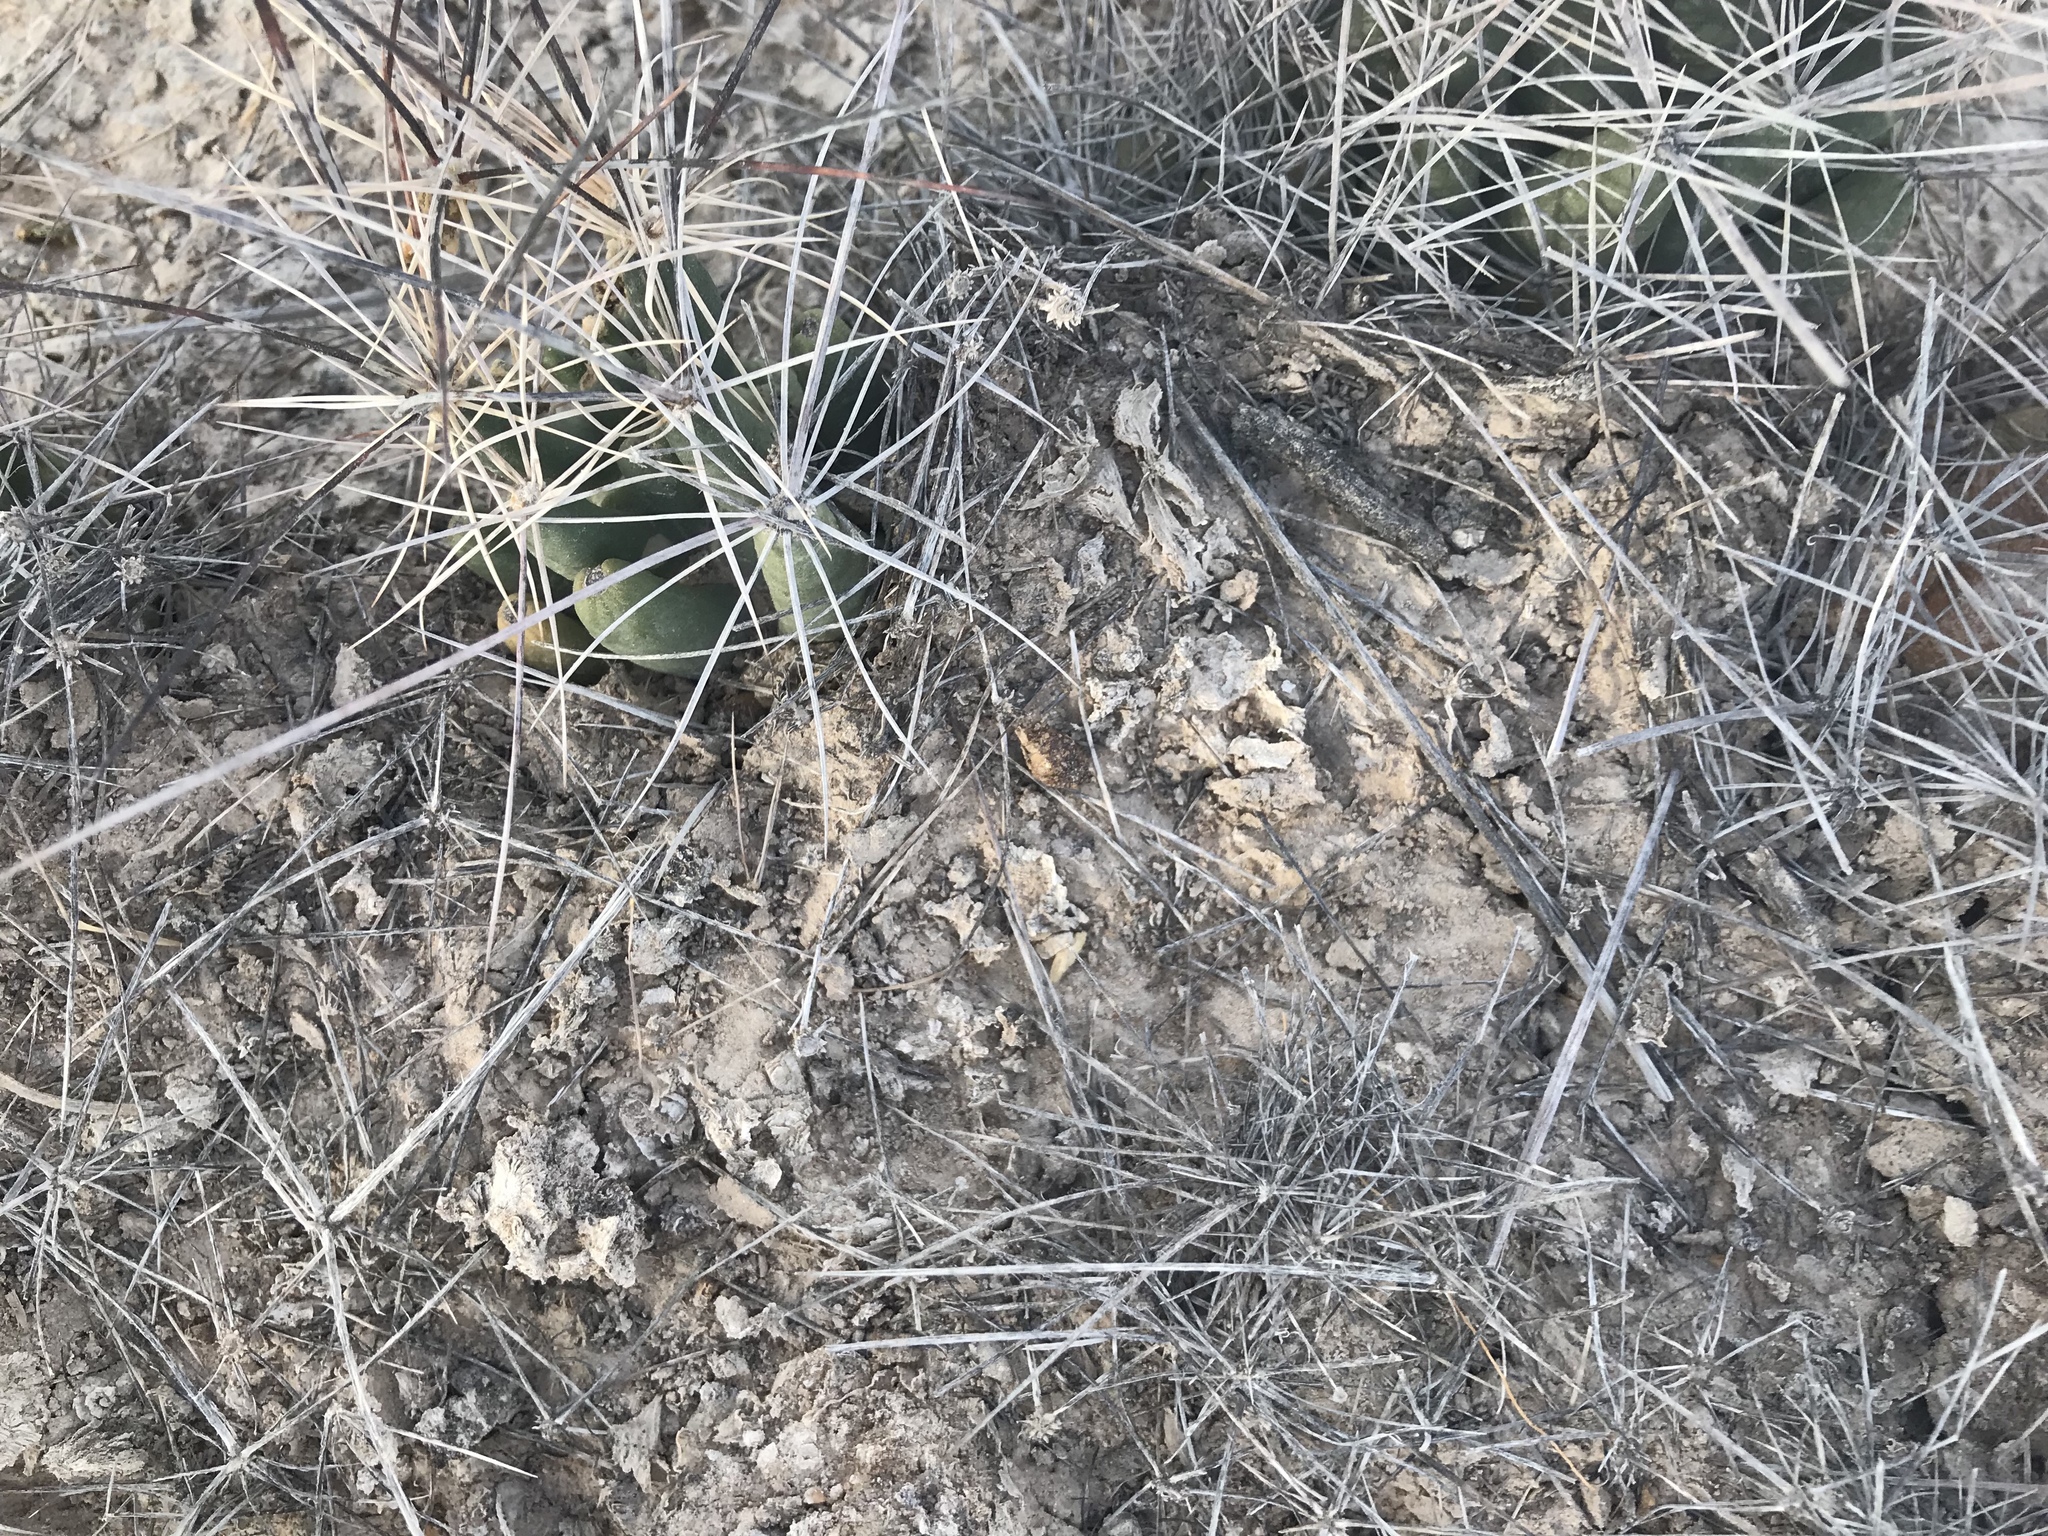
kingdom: Plantae
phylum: Tracheophyta
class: Magnoliopsida
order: Caryophyllales
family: Cactaceae
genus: Coryphantha
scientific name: Coryphantha macromeris
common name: Nipple beehive cactus
